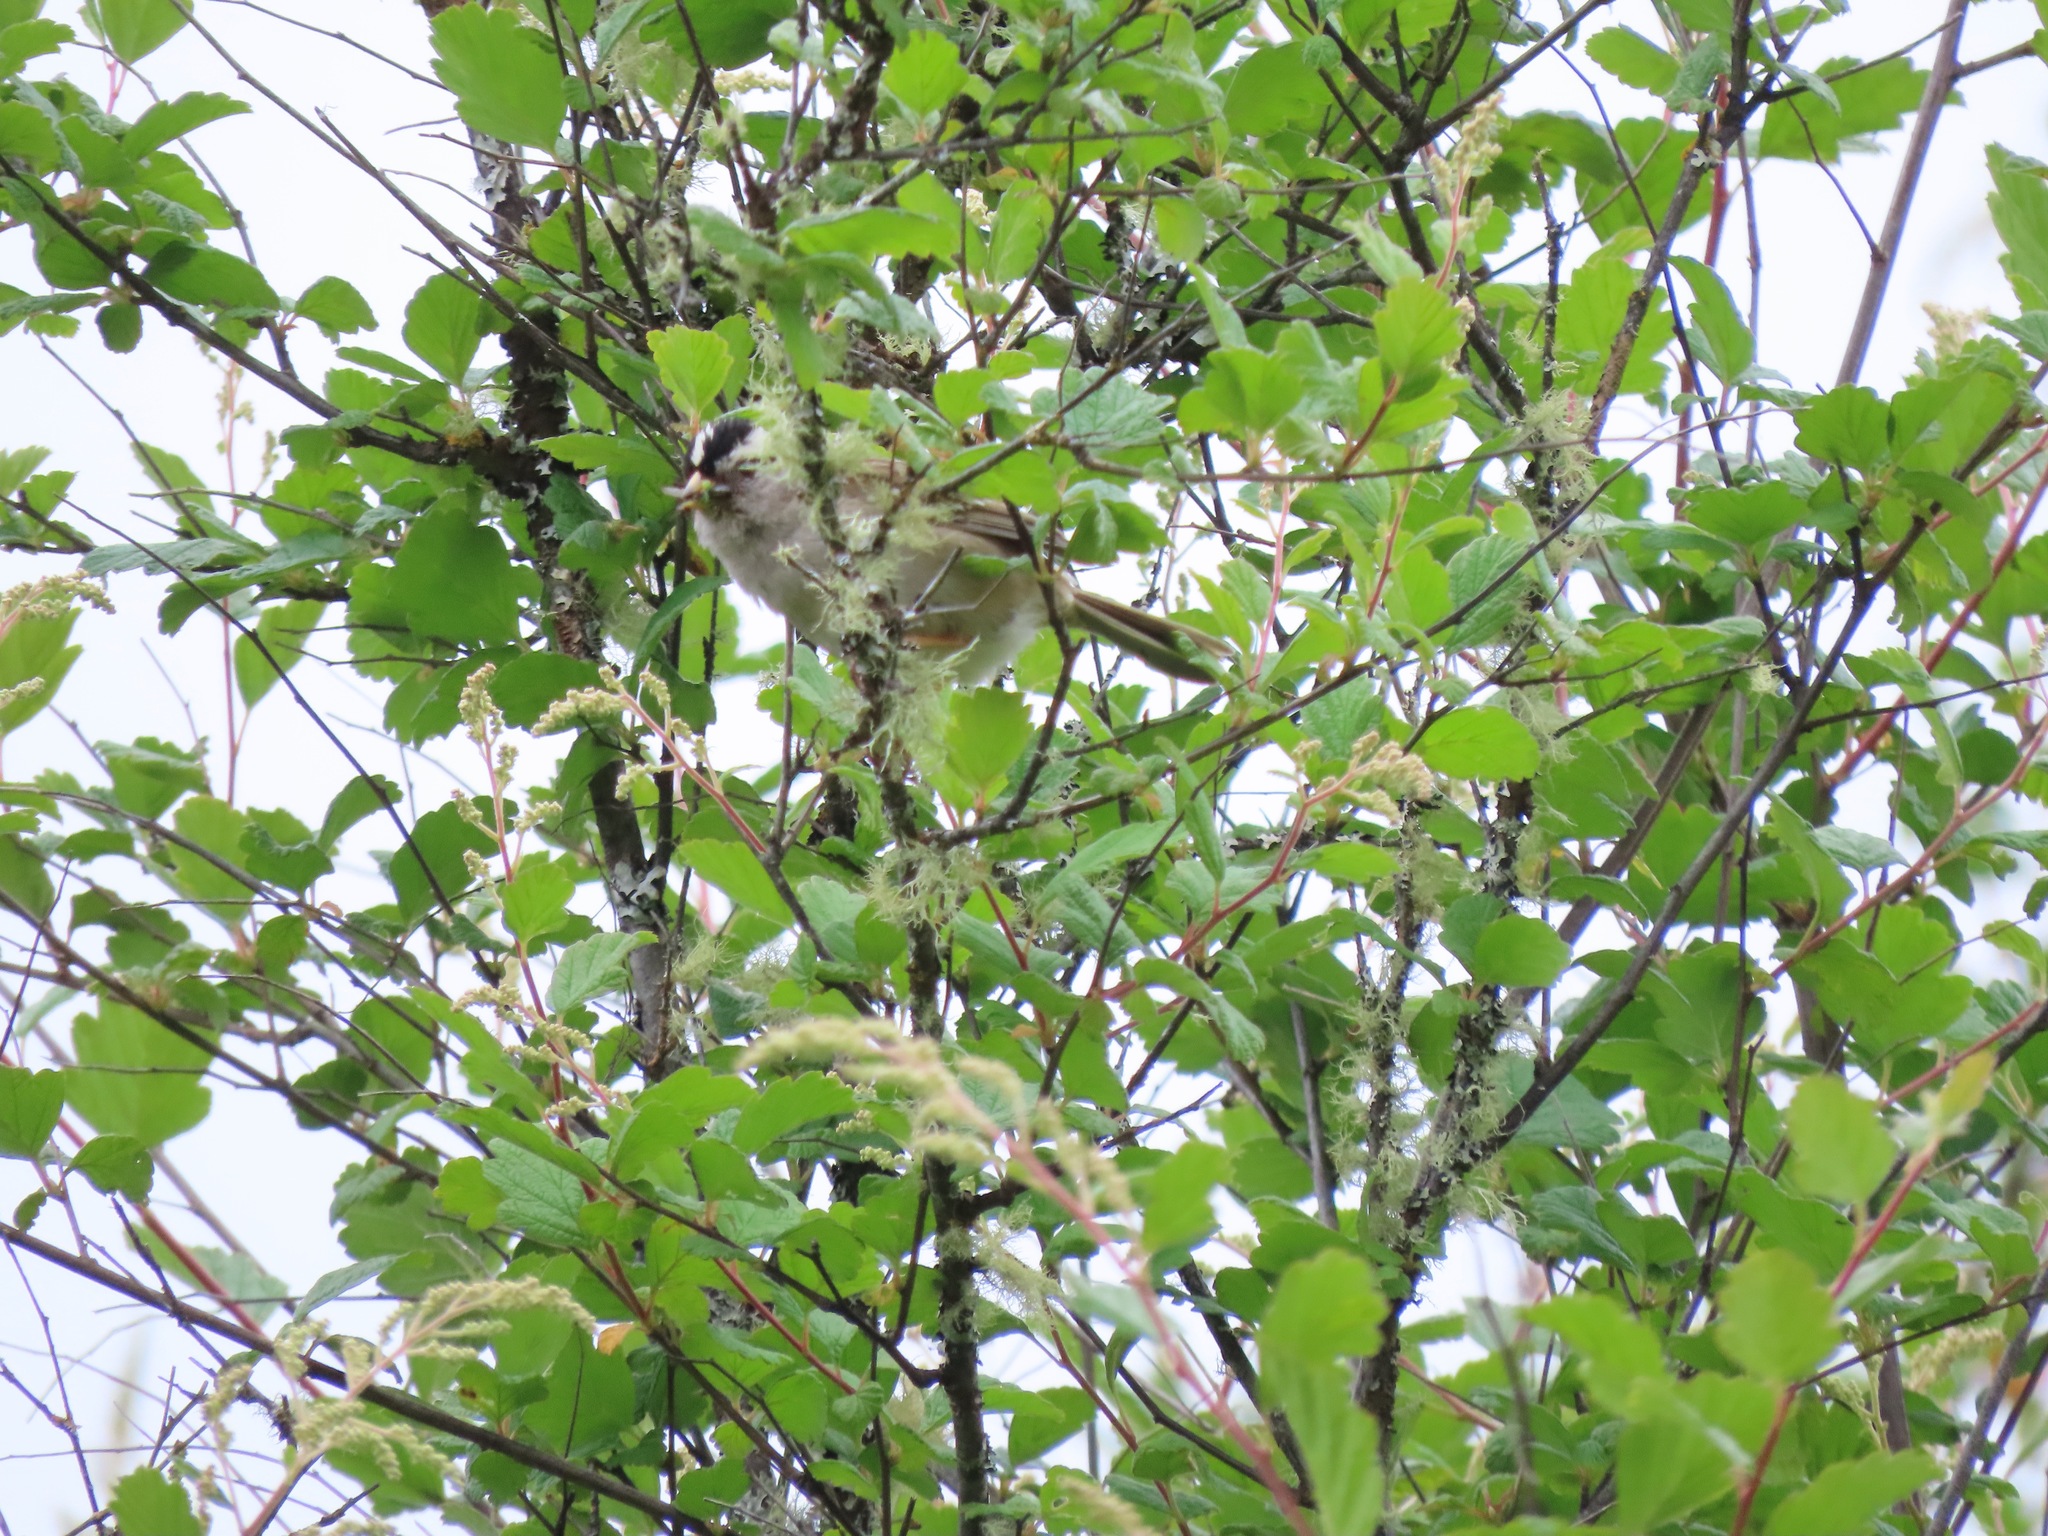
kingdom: Animalia
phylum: Chordata
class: Aves
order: Passeriformes
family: Passerellidae
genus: Zonotrichia
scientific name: Zonotrichia leucophrys
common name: White-crowned sparrow
